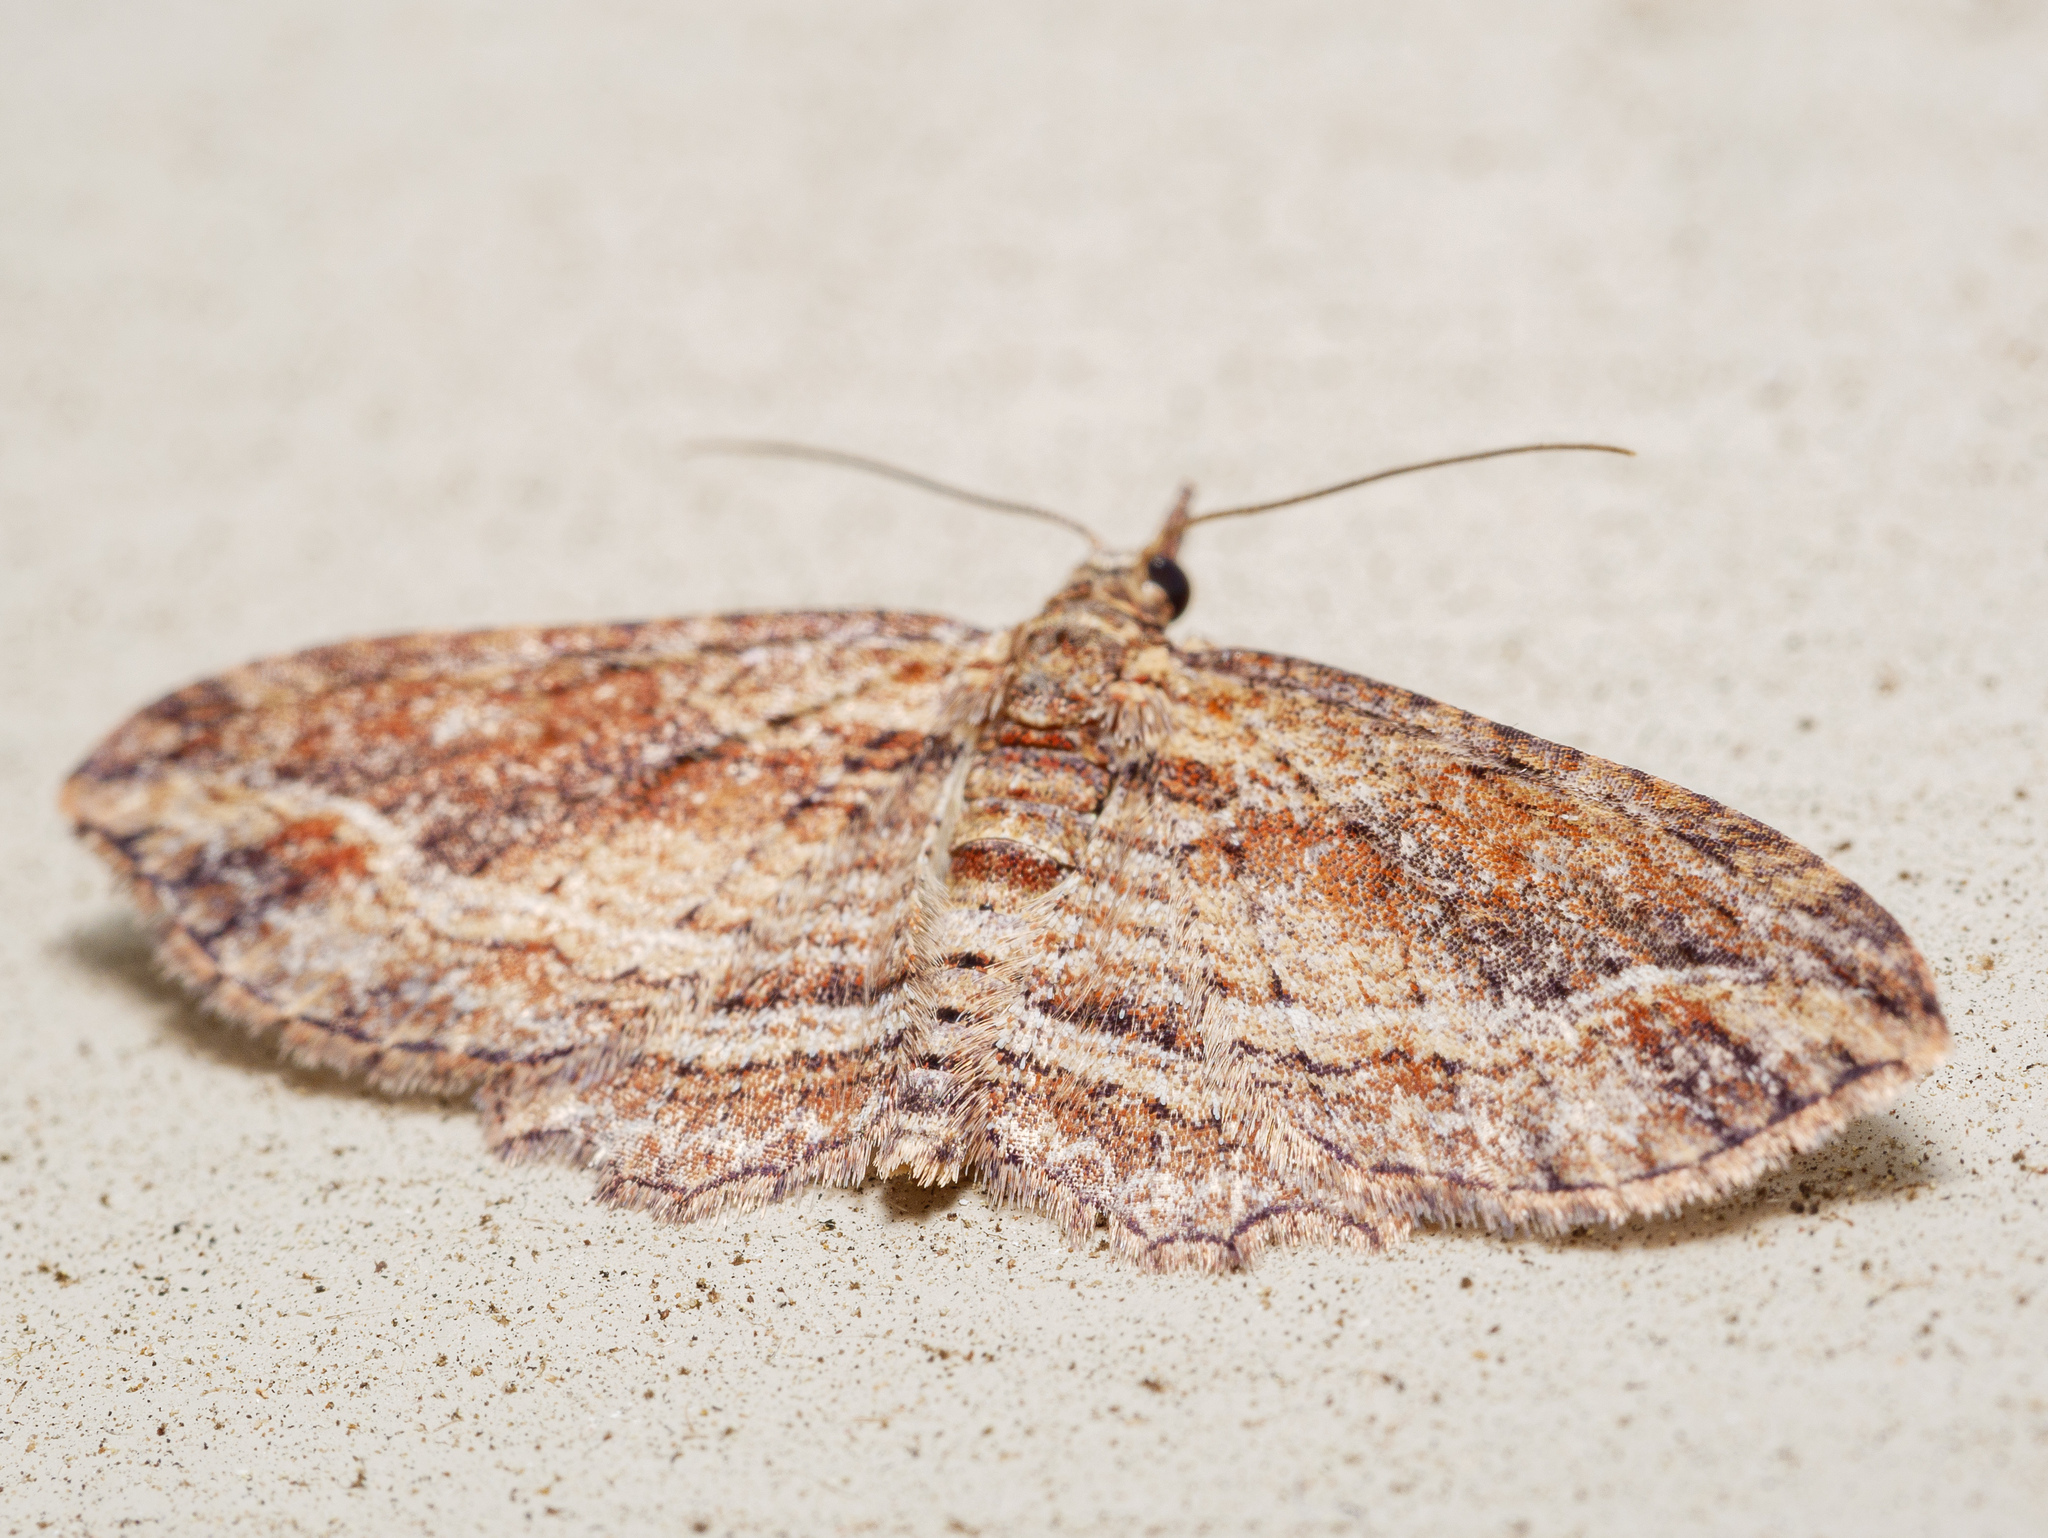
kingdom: Animalia
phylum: Arthropoda
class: Insecta
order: Lepidoptera
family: Geometridae
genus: Chloroclystis
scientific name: Chloroclystis filata
